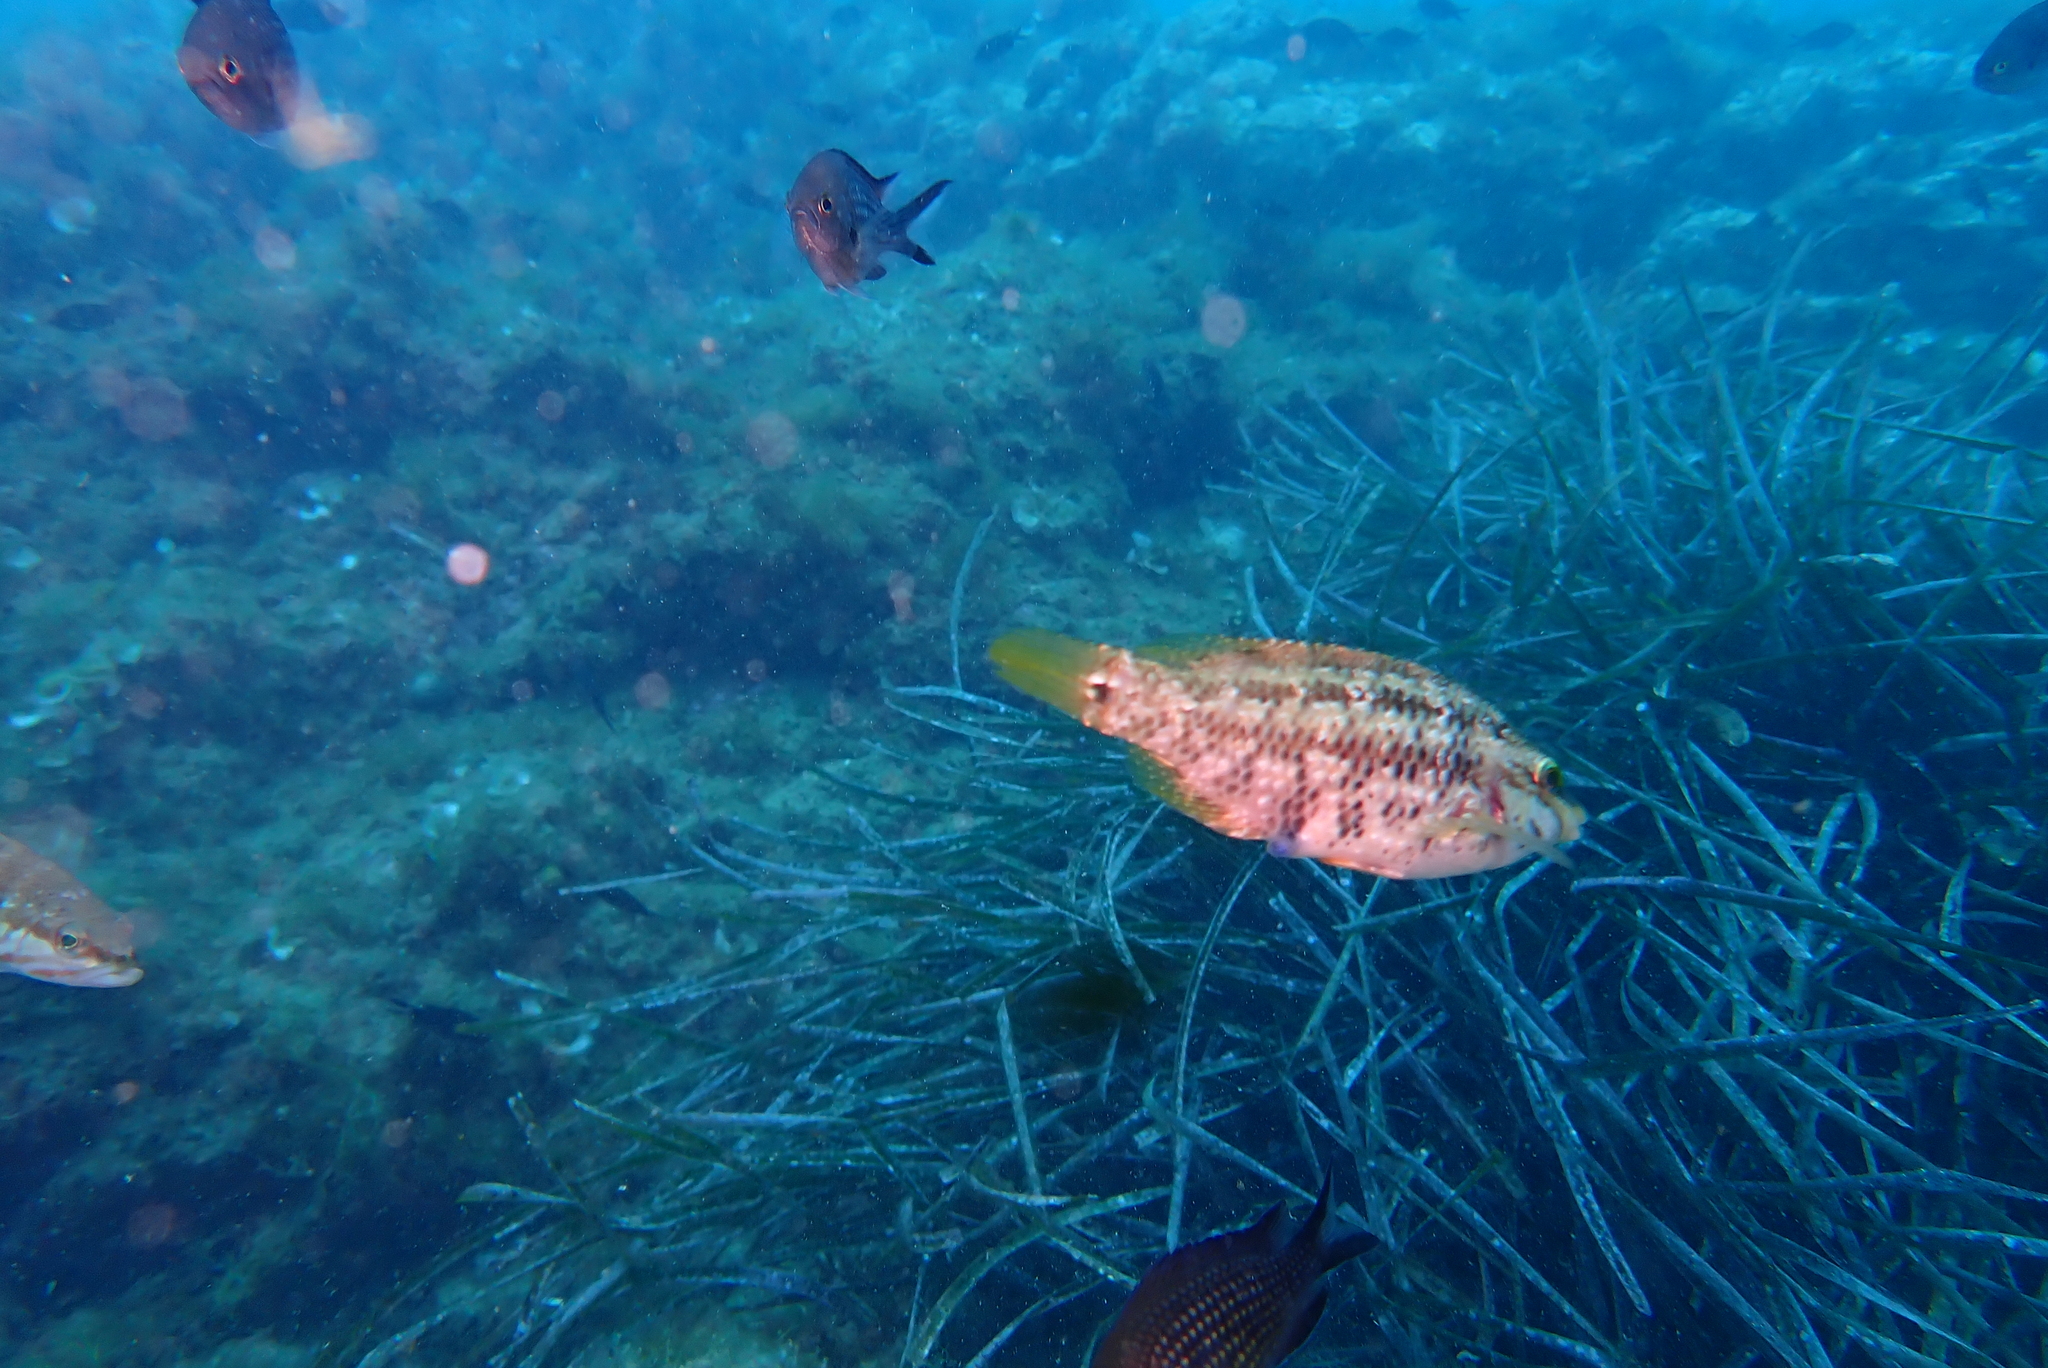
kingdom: Animalia
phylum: Chordata
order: Perciformes
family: Labridae
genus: Symphodus
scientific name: Symphodus roissali
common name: Five-spotted wrasse
